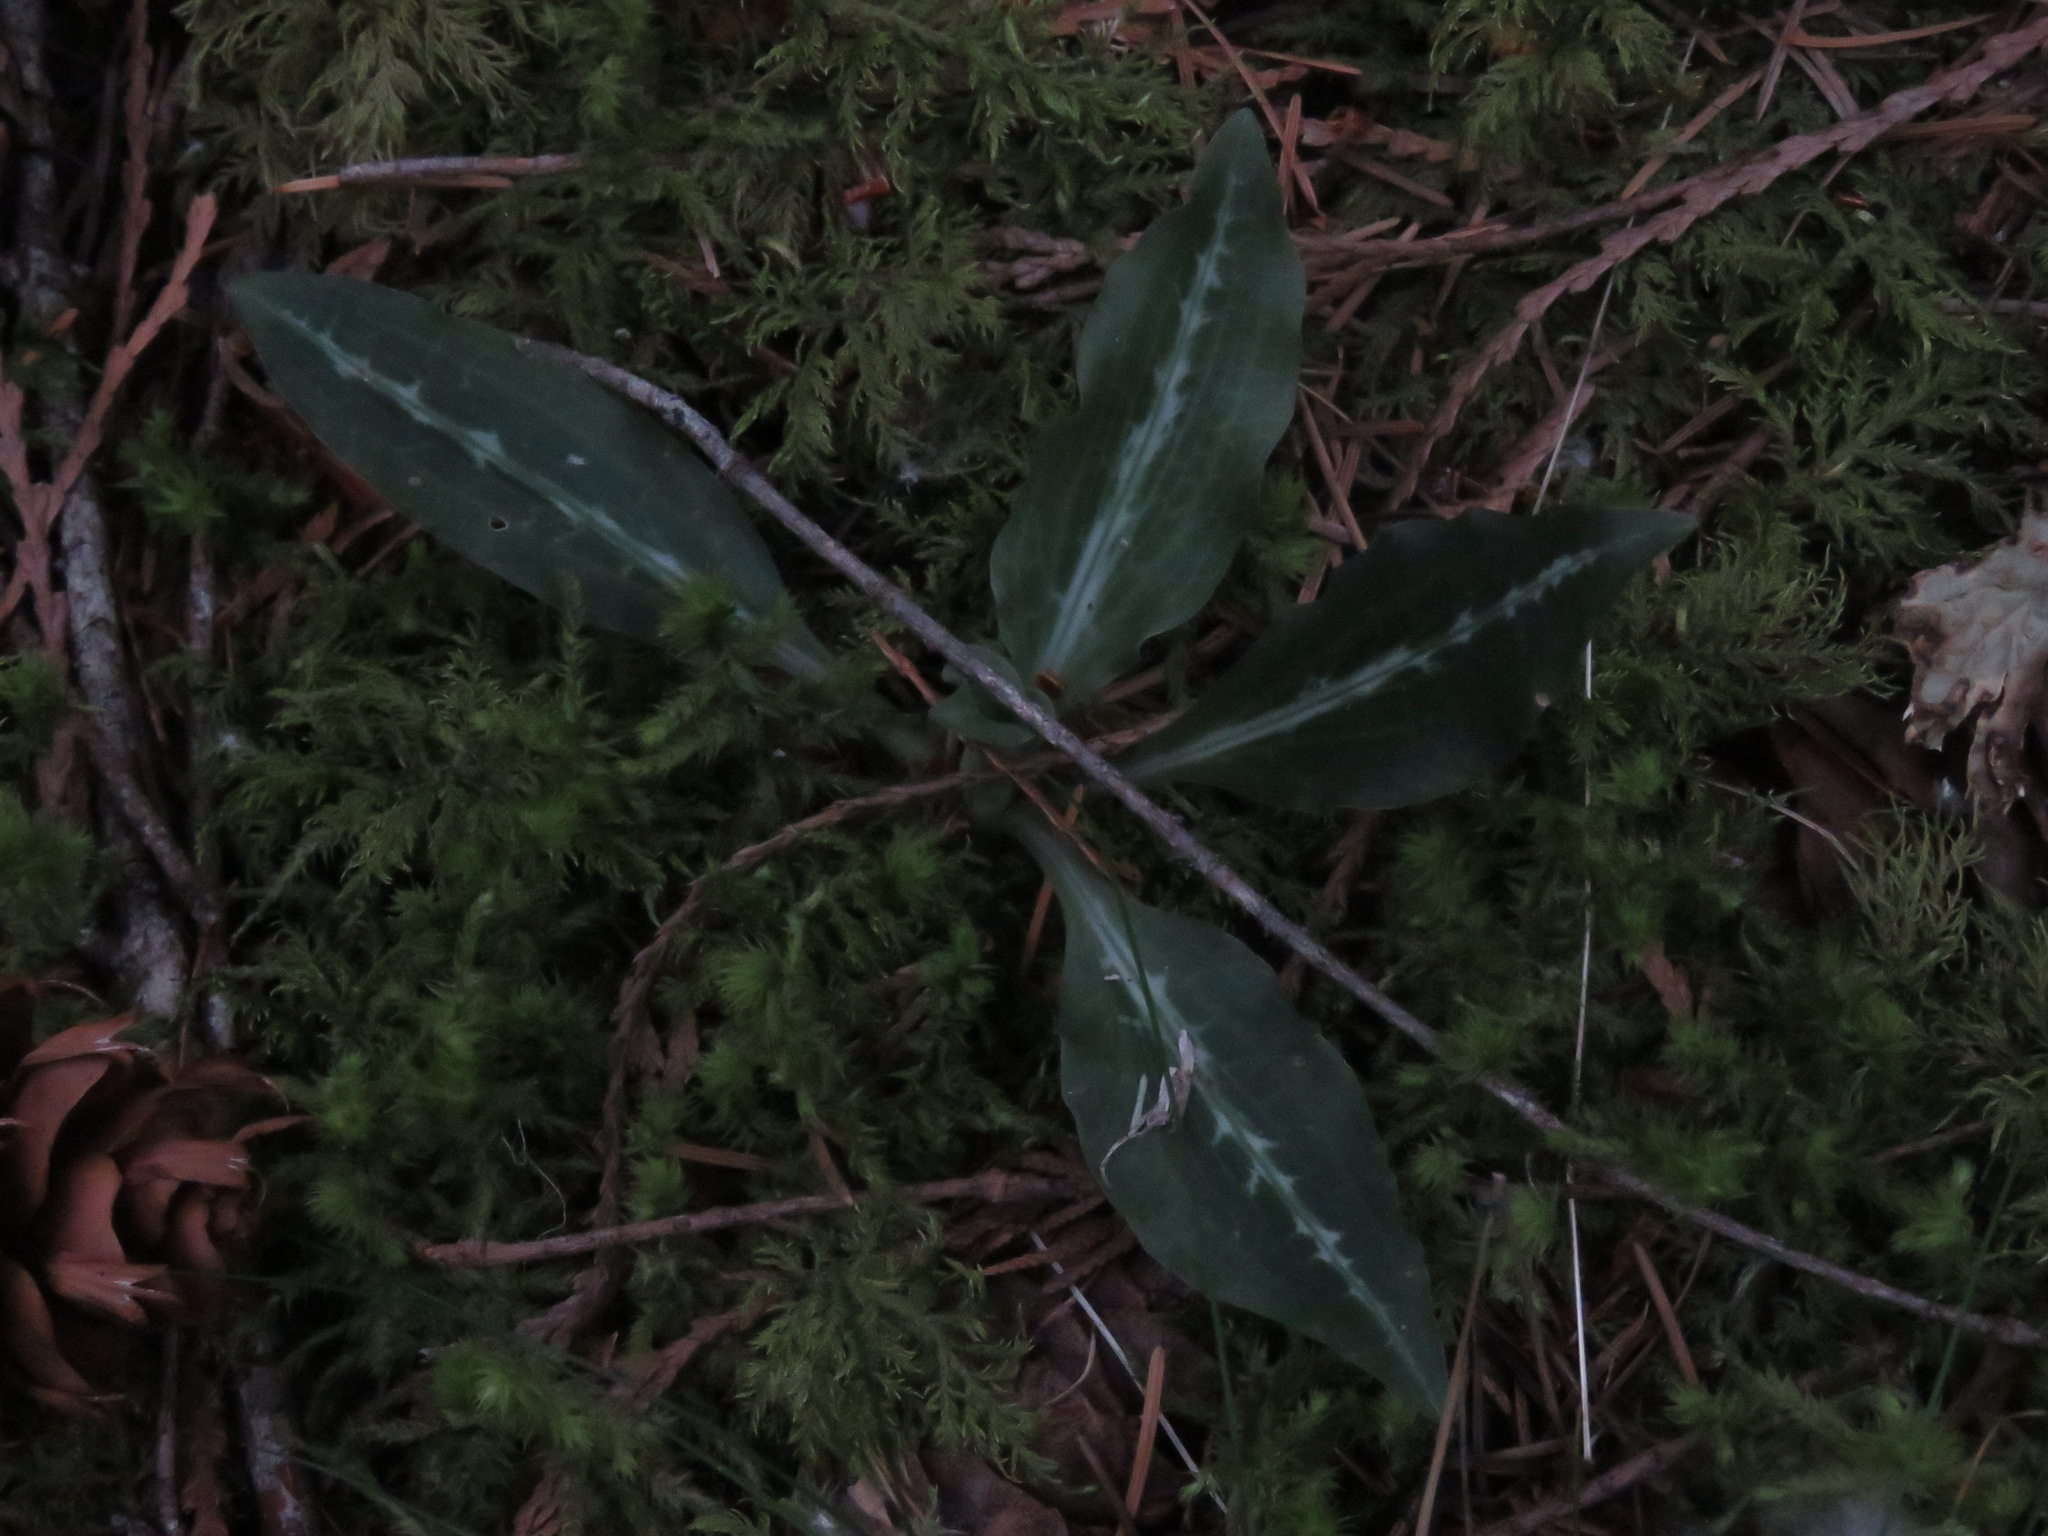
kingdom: Plantae
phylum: Tracheophyta
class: Liliopsida
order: Asparagales
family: Orchidaceae
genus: Goodyera
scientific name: Goodyera oblongifolia
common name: Giant rattlesnake-plantain
